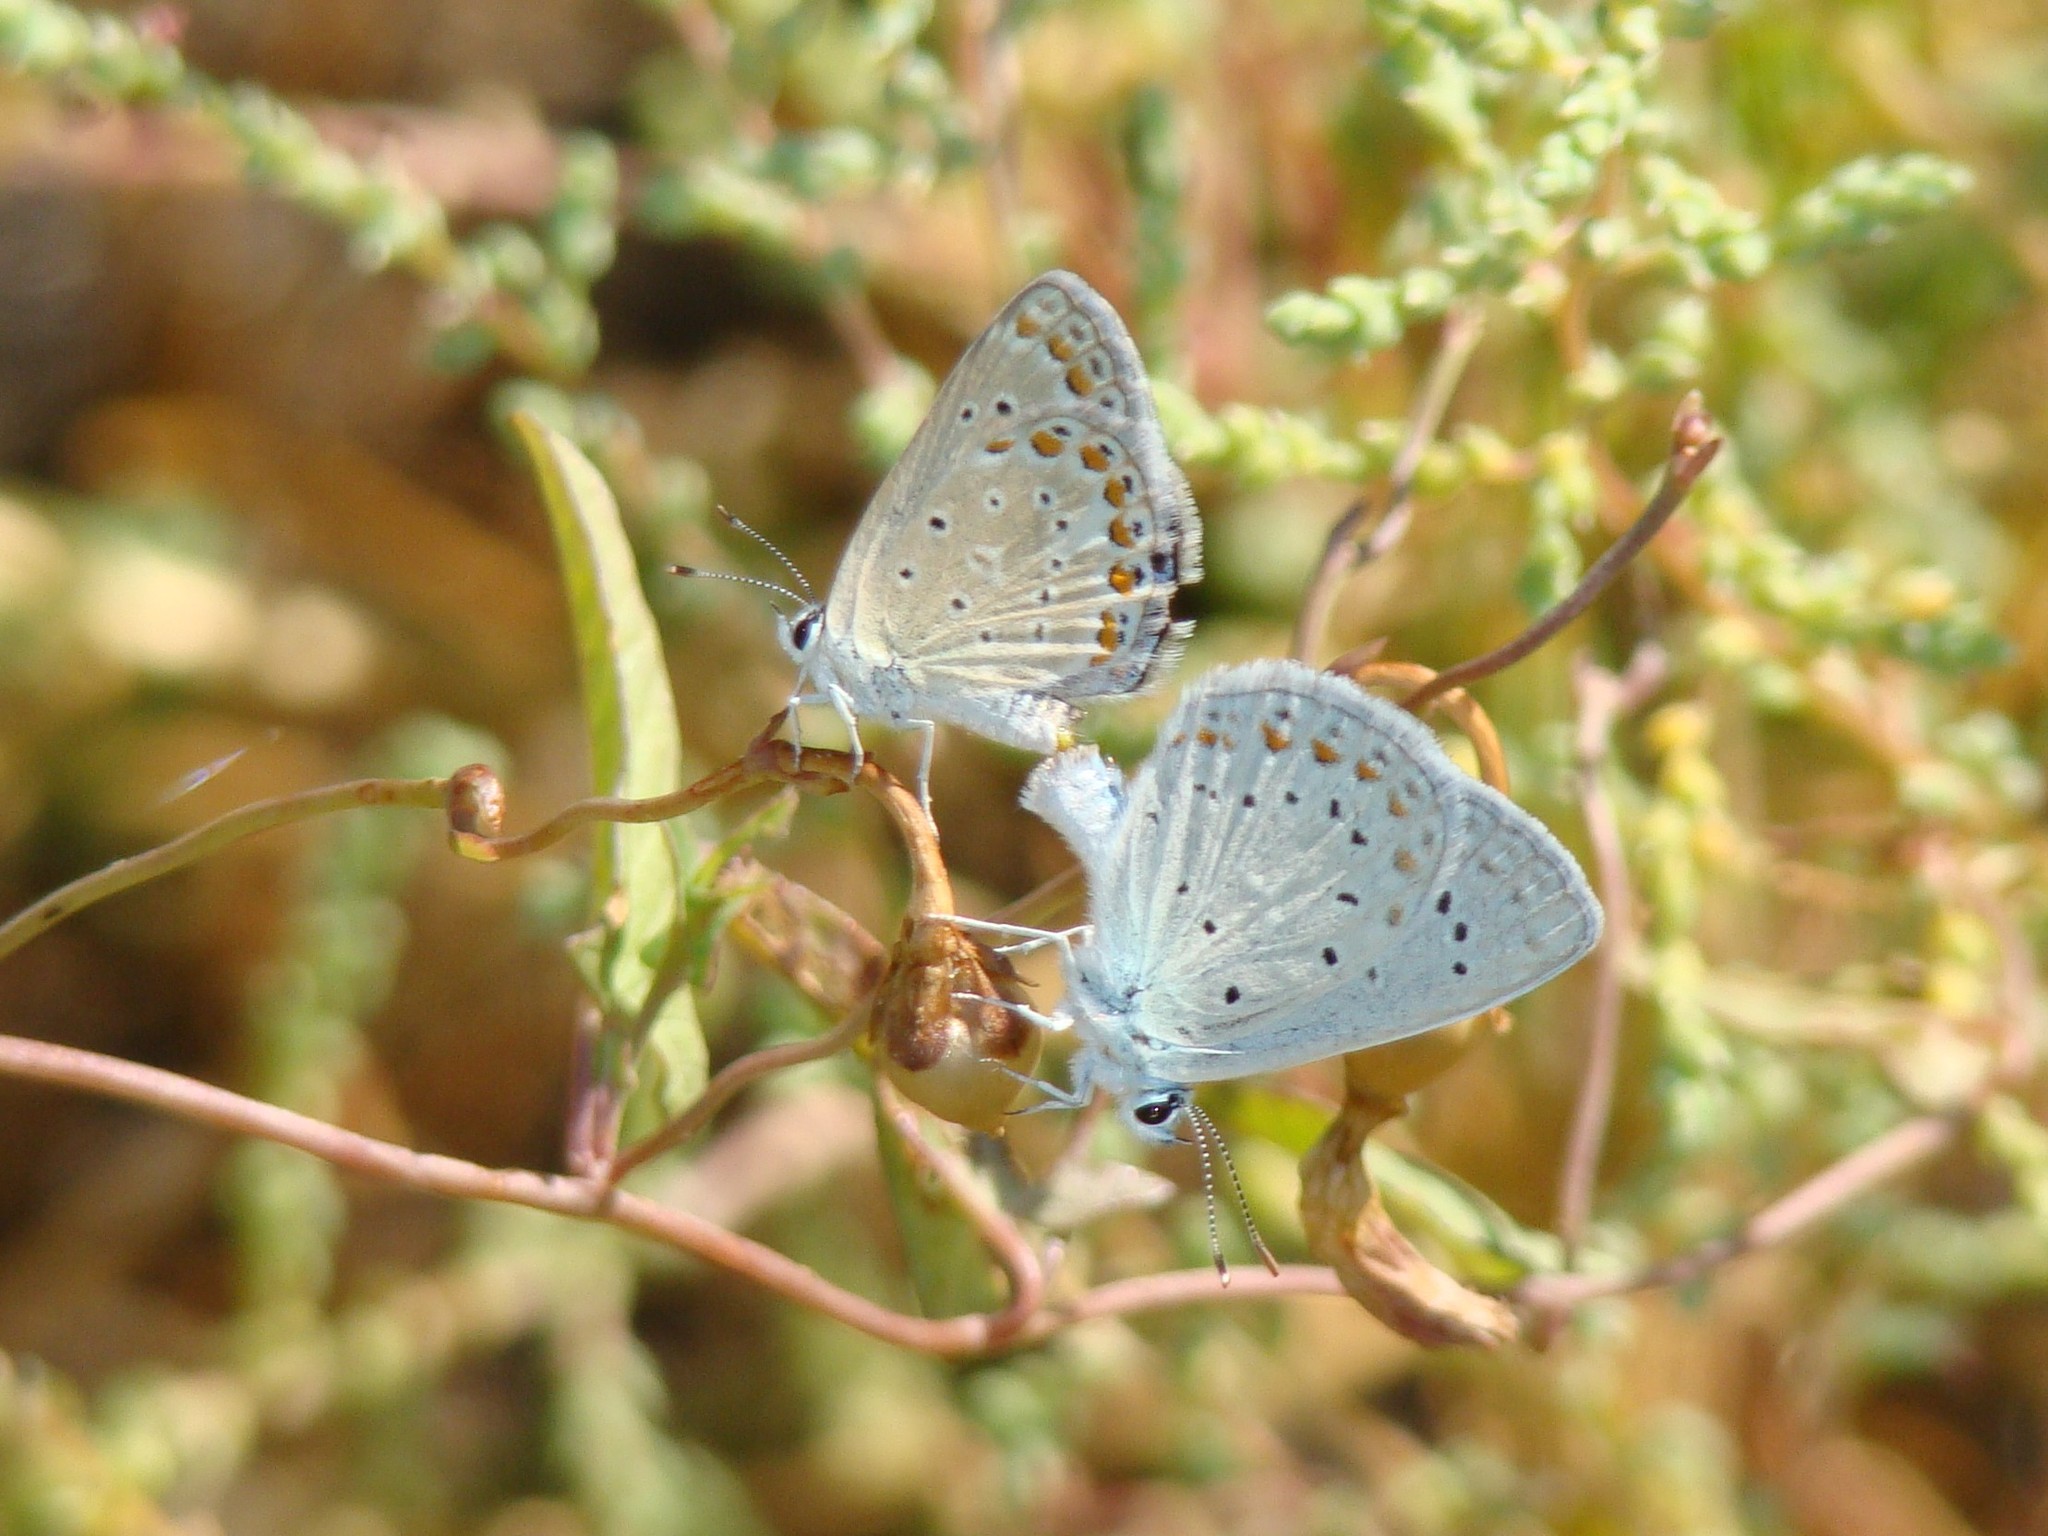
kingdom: Animalia
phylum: Arthropoda
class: Insecta
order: Lepidoptera
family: Lycaenidae
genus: Polyommatus
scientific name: Polyommatus icarus
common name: Common blue
